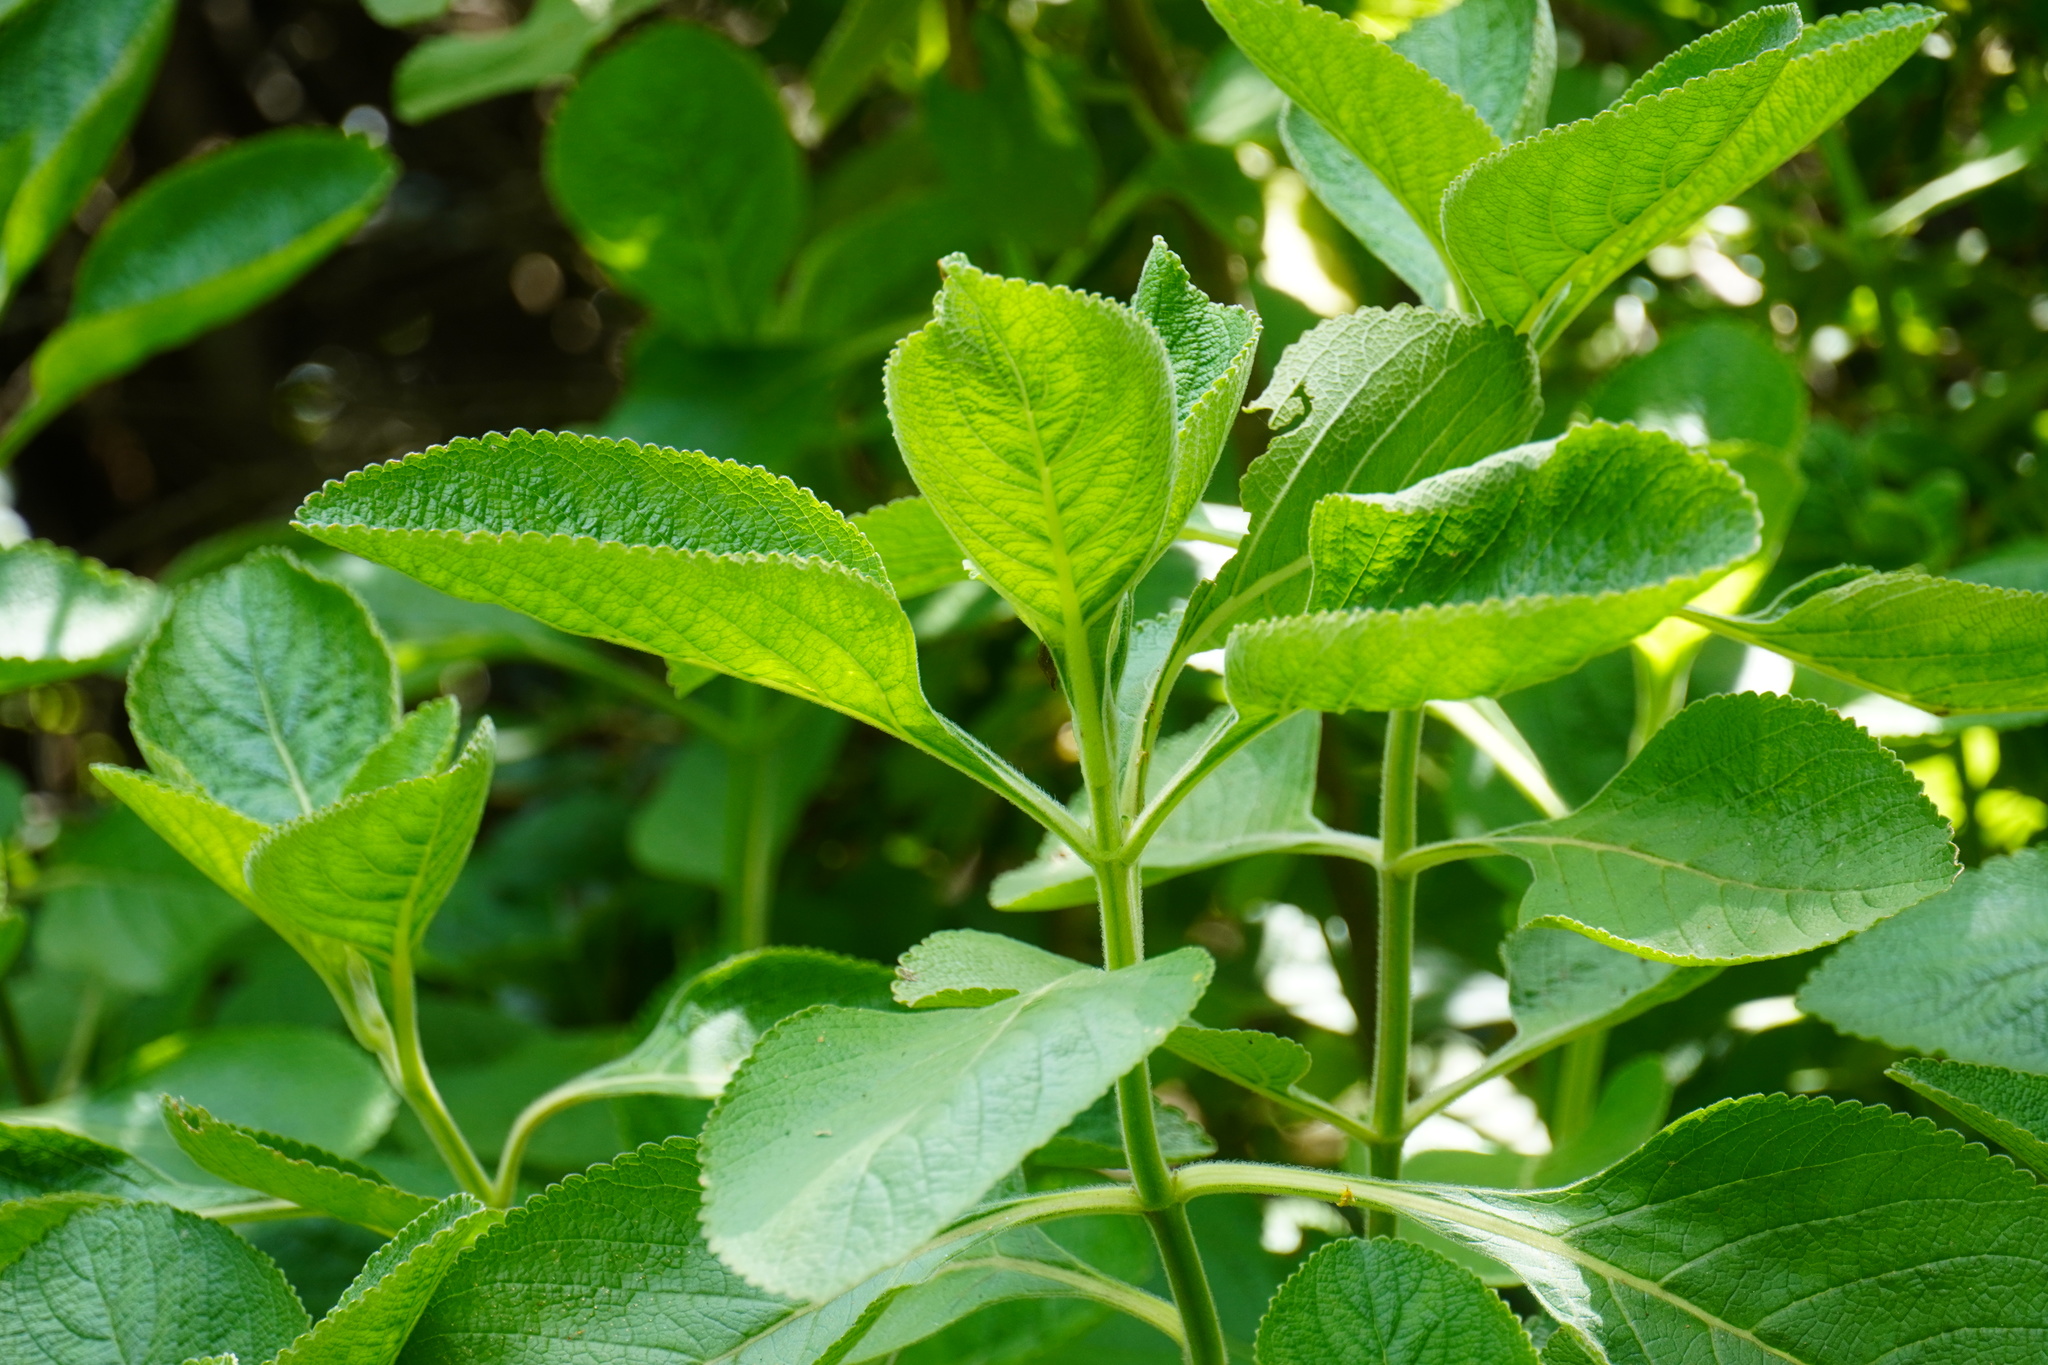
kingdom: Plantae
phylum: Tracheophyta
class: Magnoliopsida
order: Lamiales
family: Lamiaceae
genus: Coleus
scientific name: Coleus barbatus
